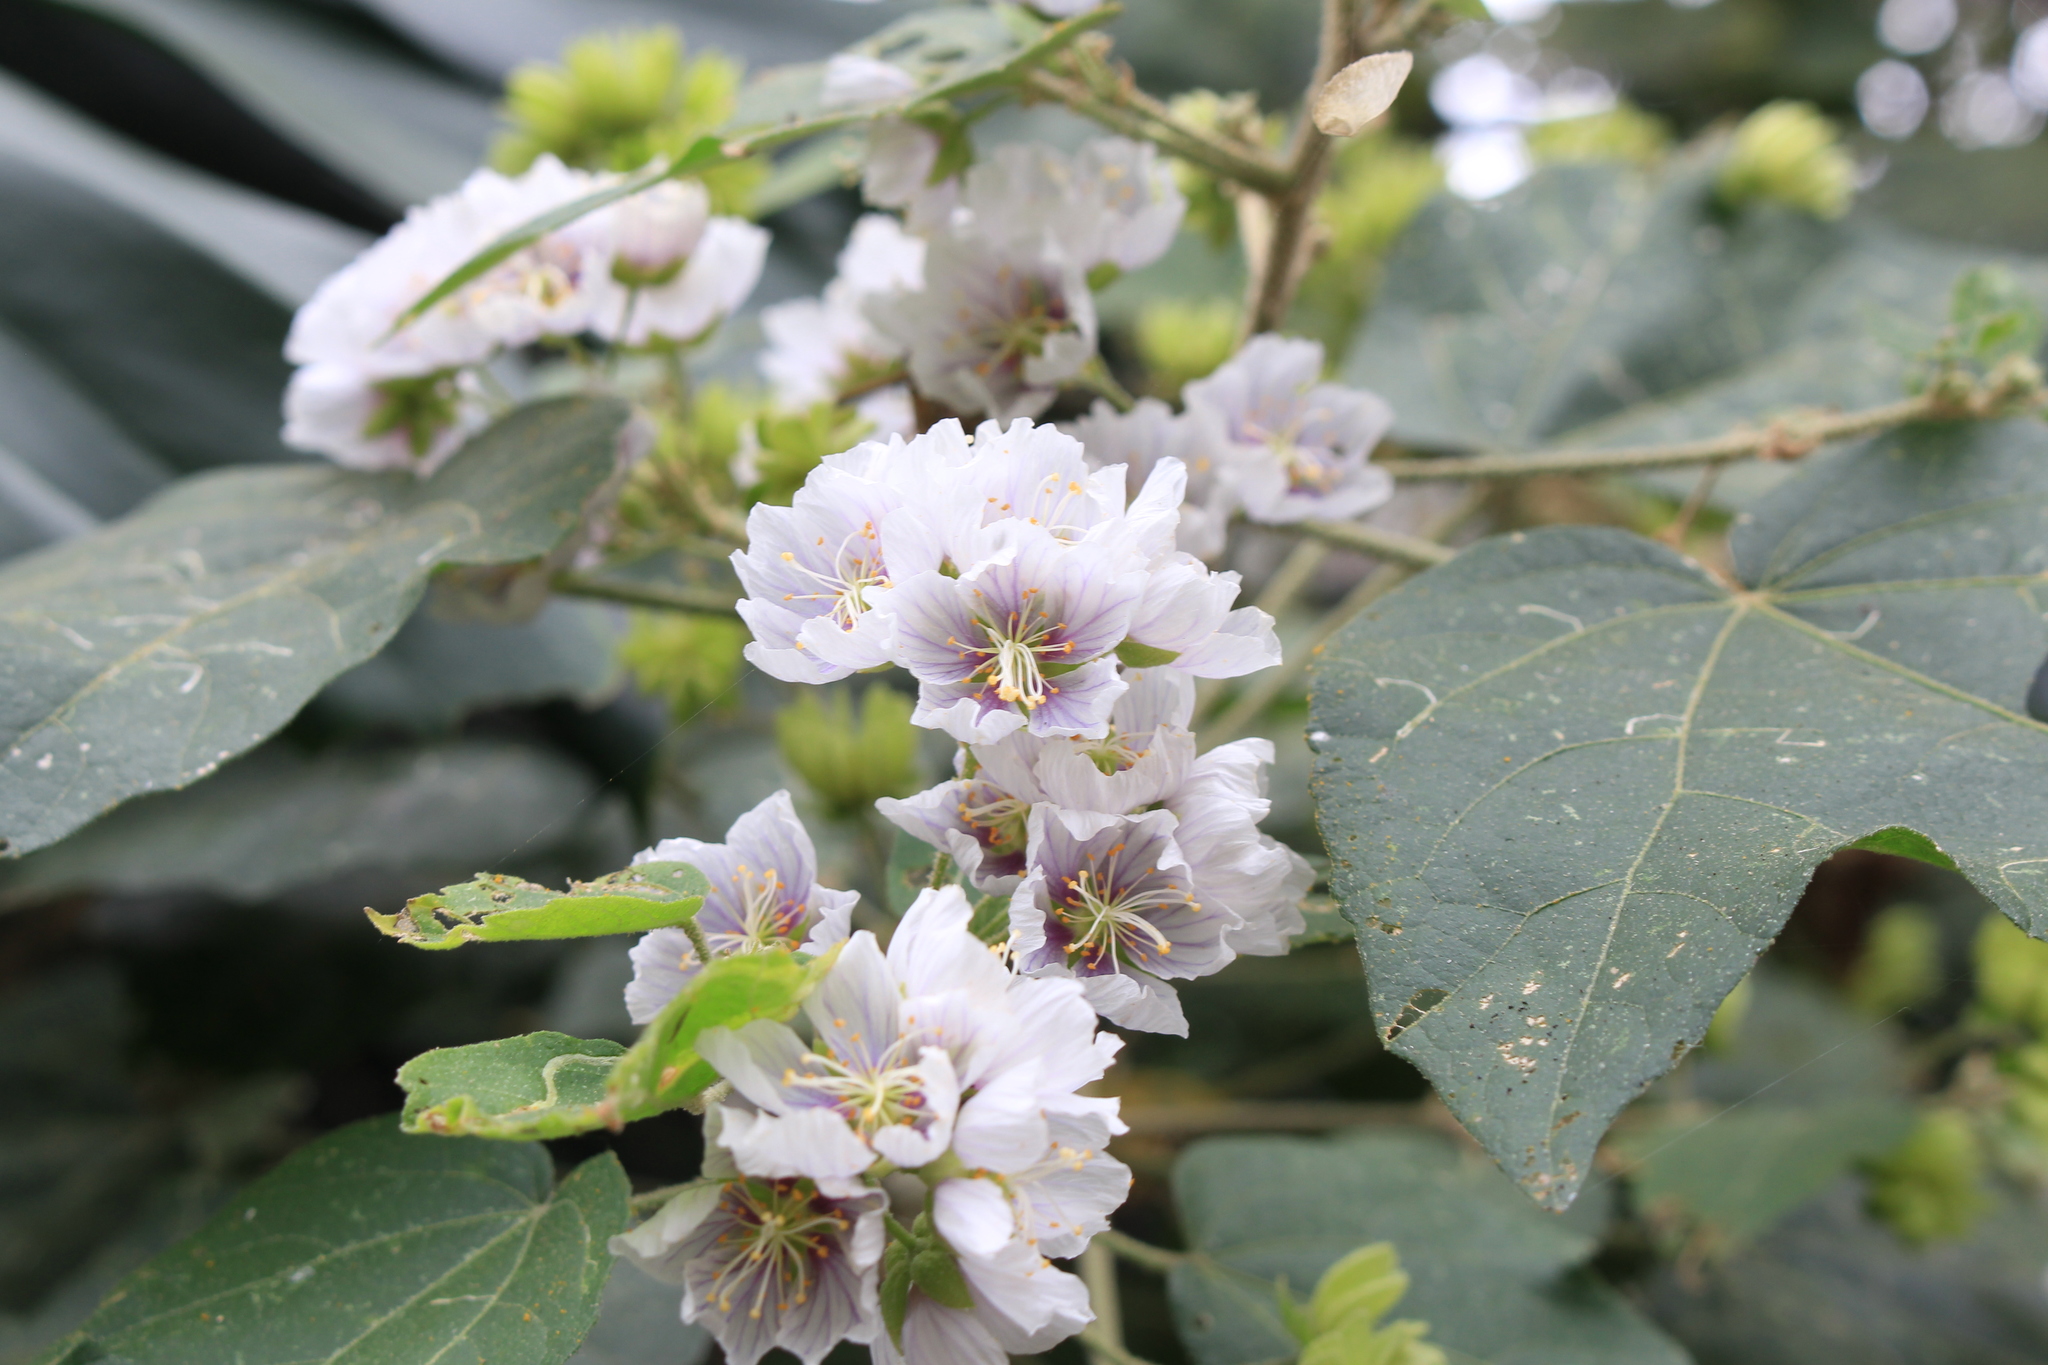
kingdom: Plantae
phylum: Tracheophyta
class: Magnoliopsida
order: Malvales
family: Malvaceae
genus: Robinsonella
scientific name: Robinsonella lindeniana
